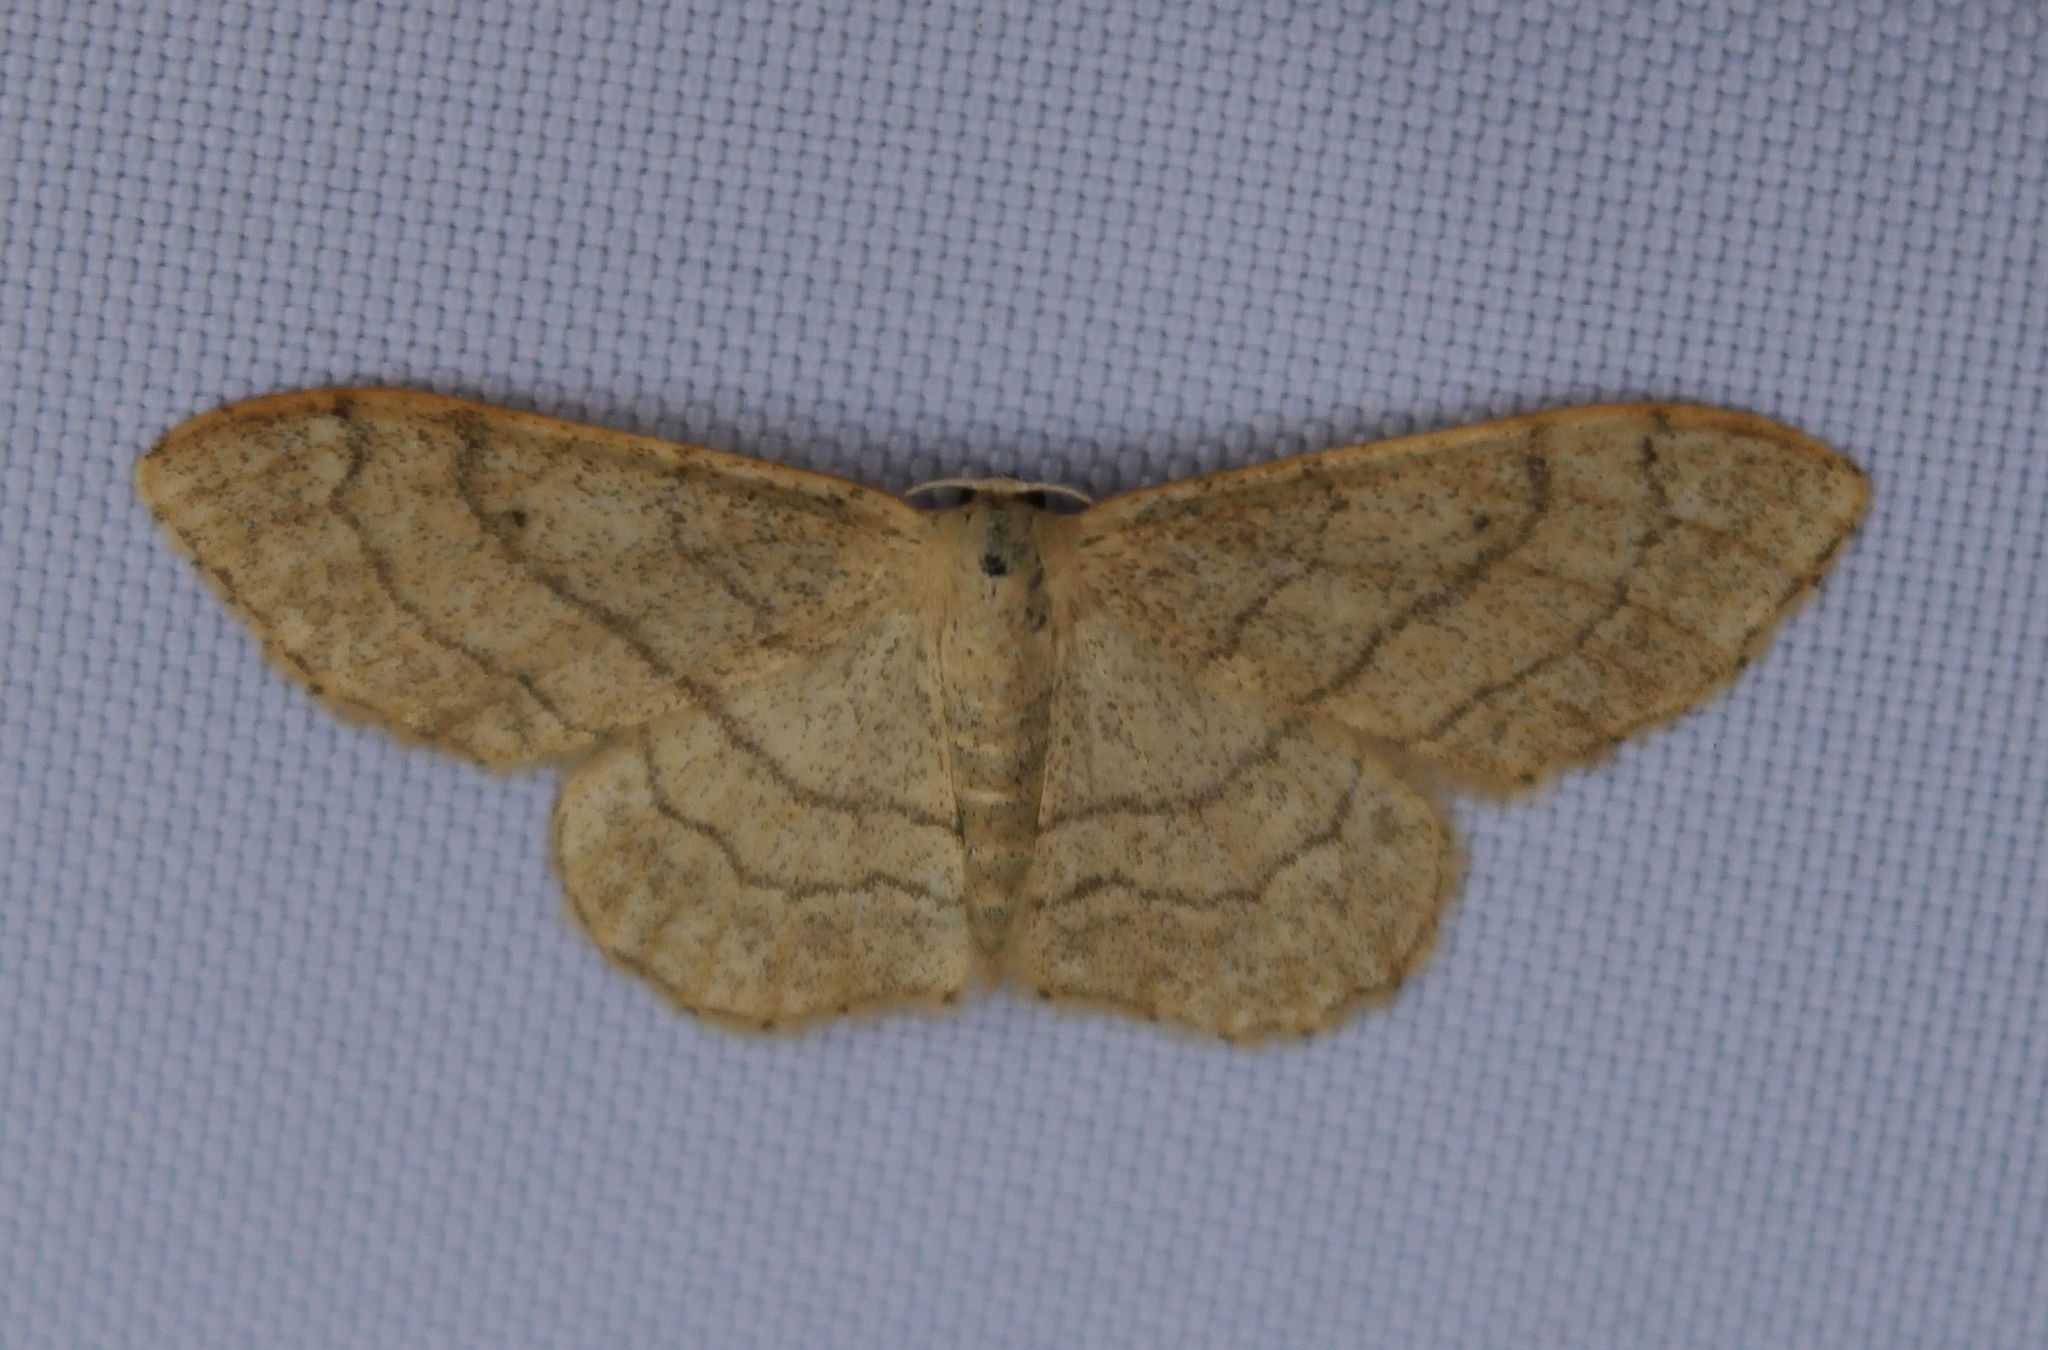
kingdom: Animalia
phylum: Arthropoda
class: Insecta
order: Lepidoptera
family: Geometridae
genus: Idaea
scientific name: Idaea aversata
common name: Riband wave
